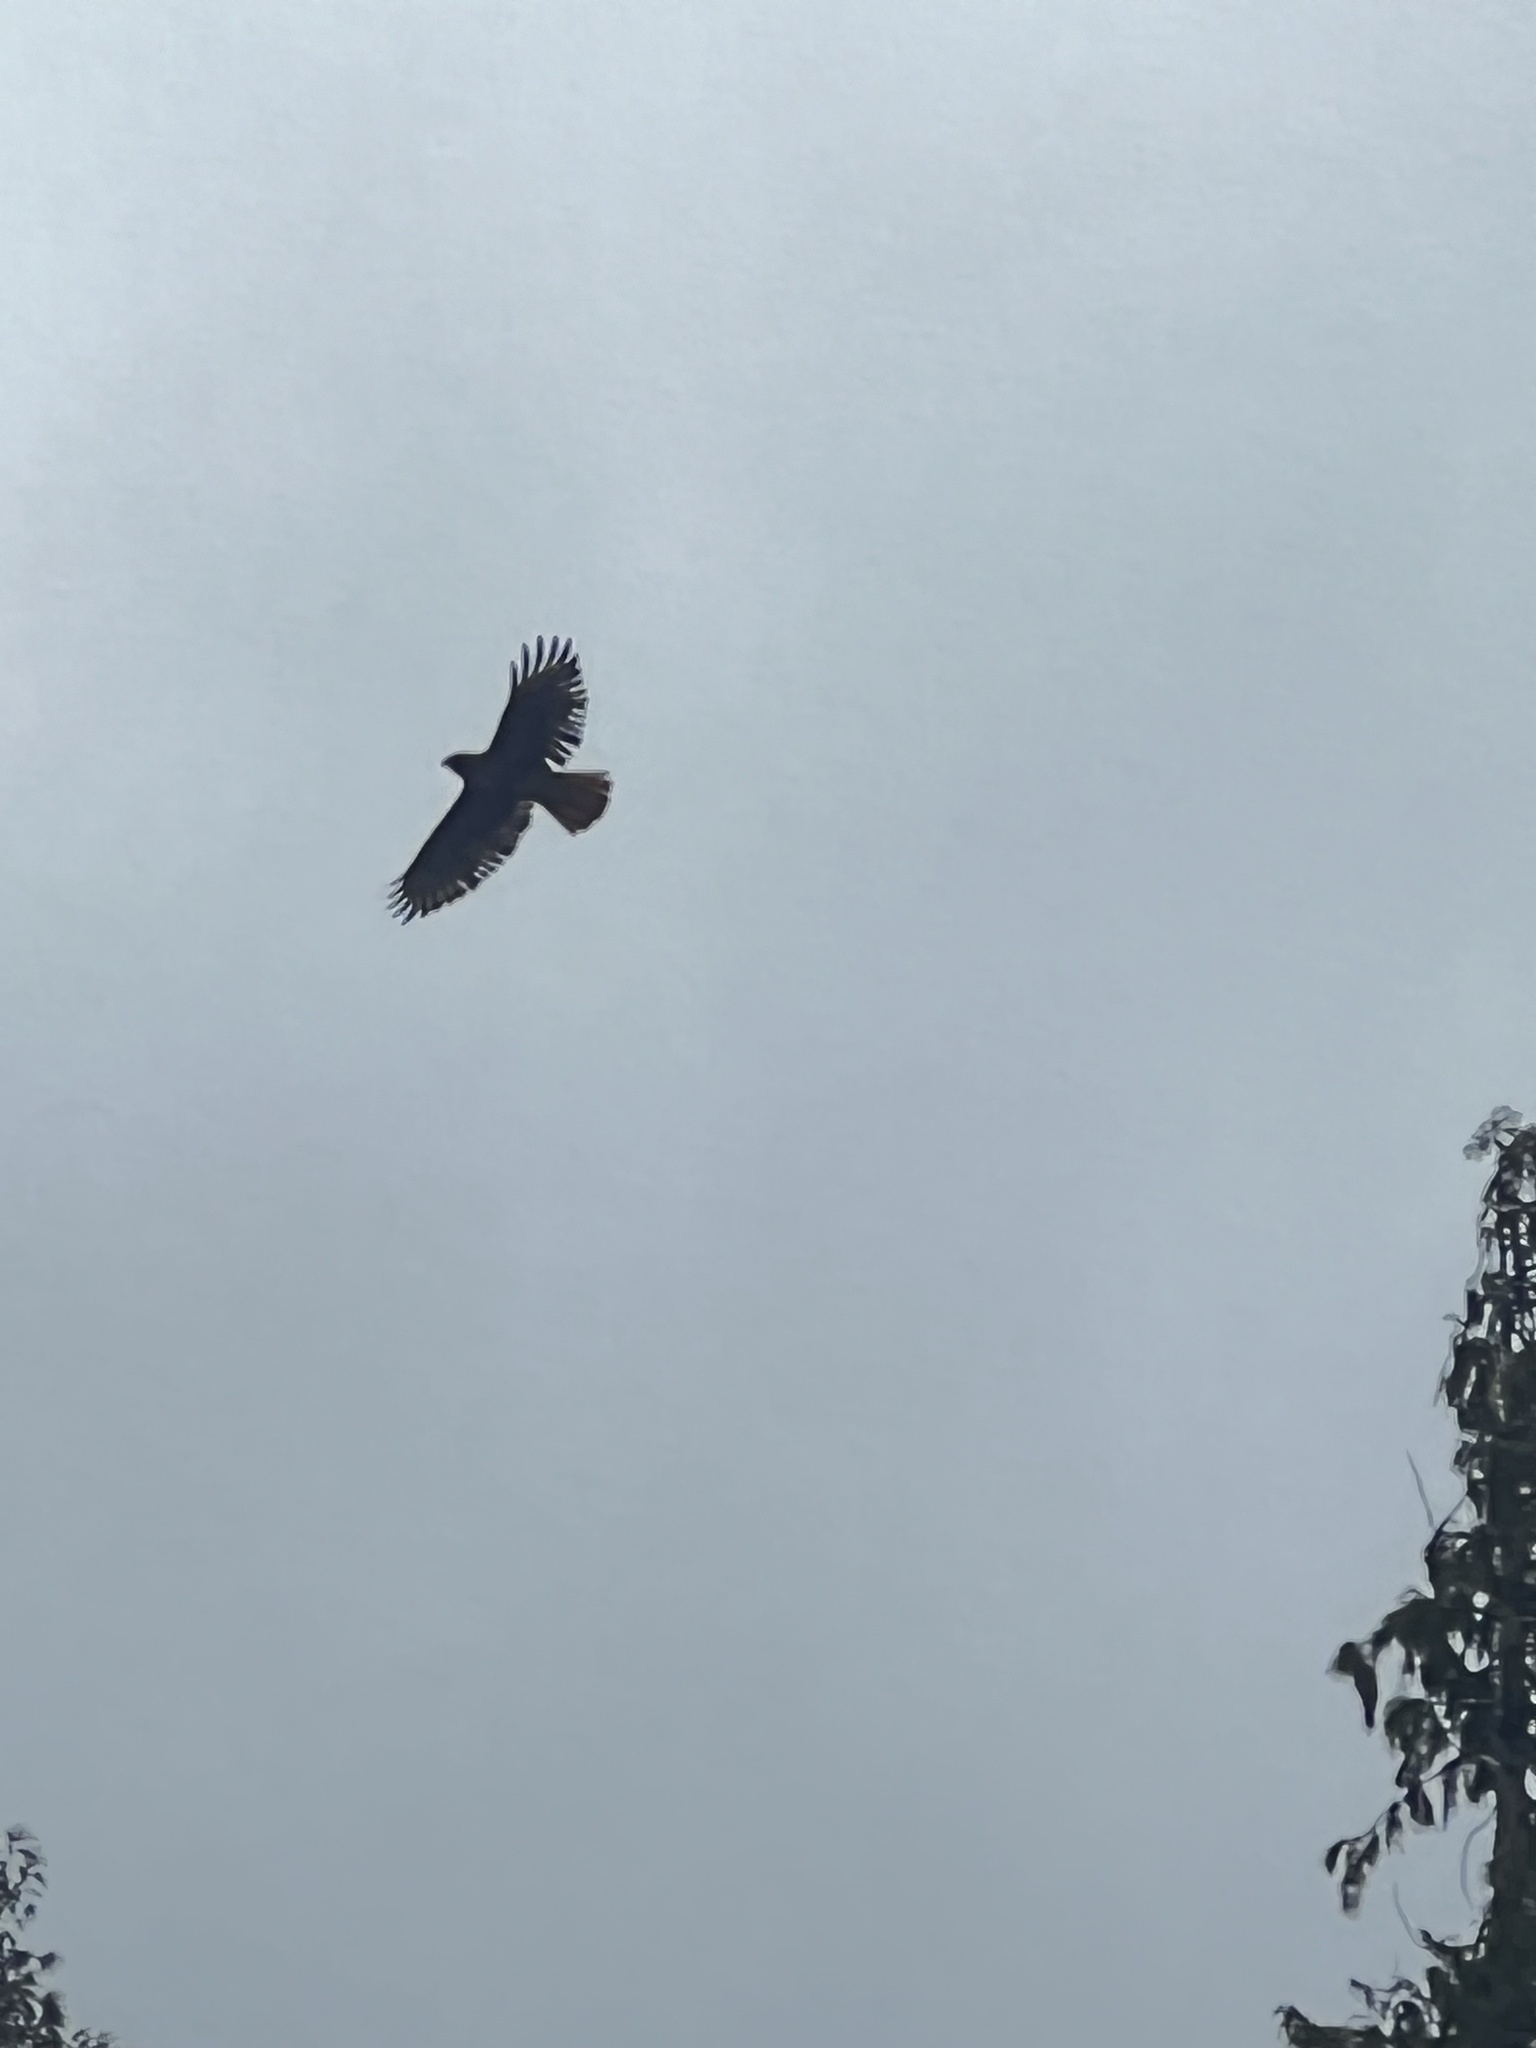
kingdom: Animalia
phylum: Chordata
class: Aves
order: Accipitriformes
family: Accipitridae
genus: Buteo
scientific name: Buteo jamaicensis
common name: Red-tailed hawk
